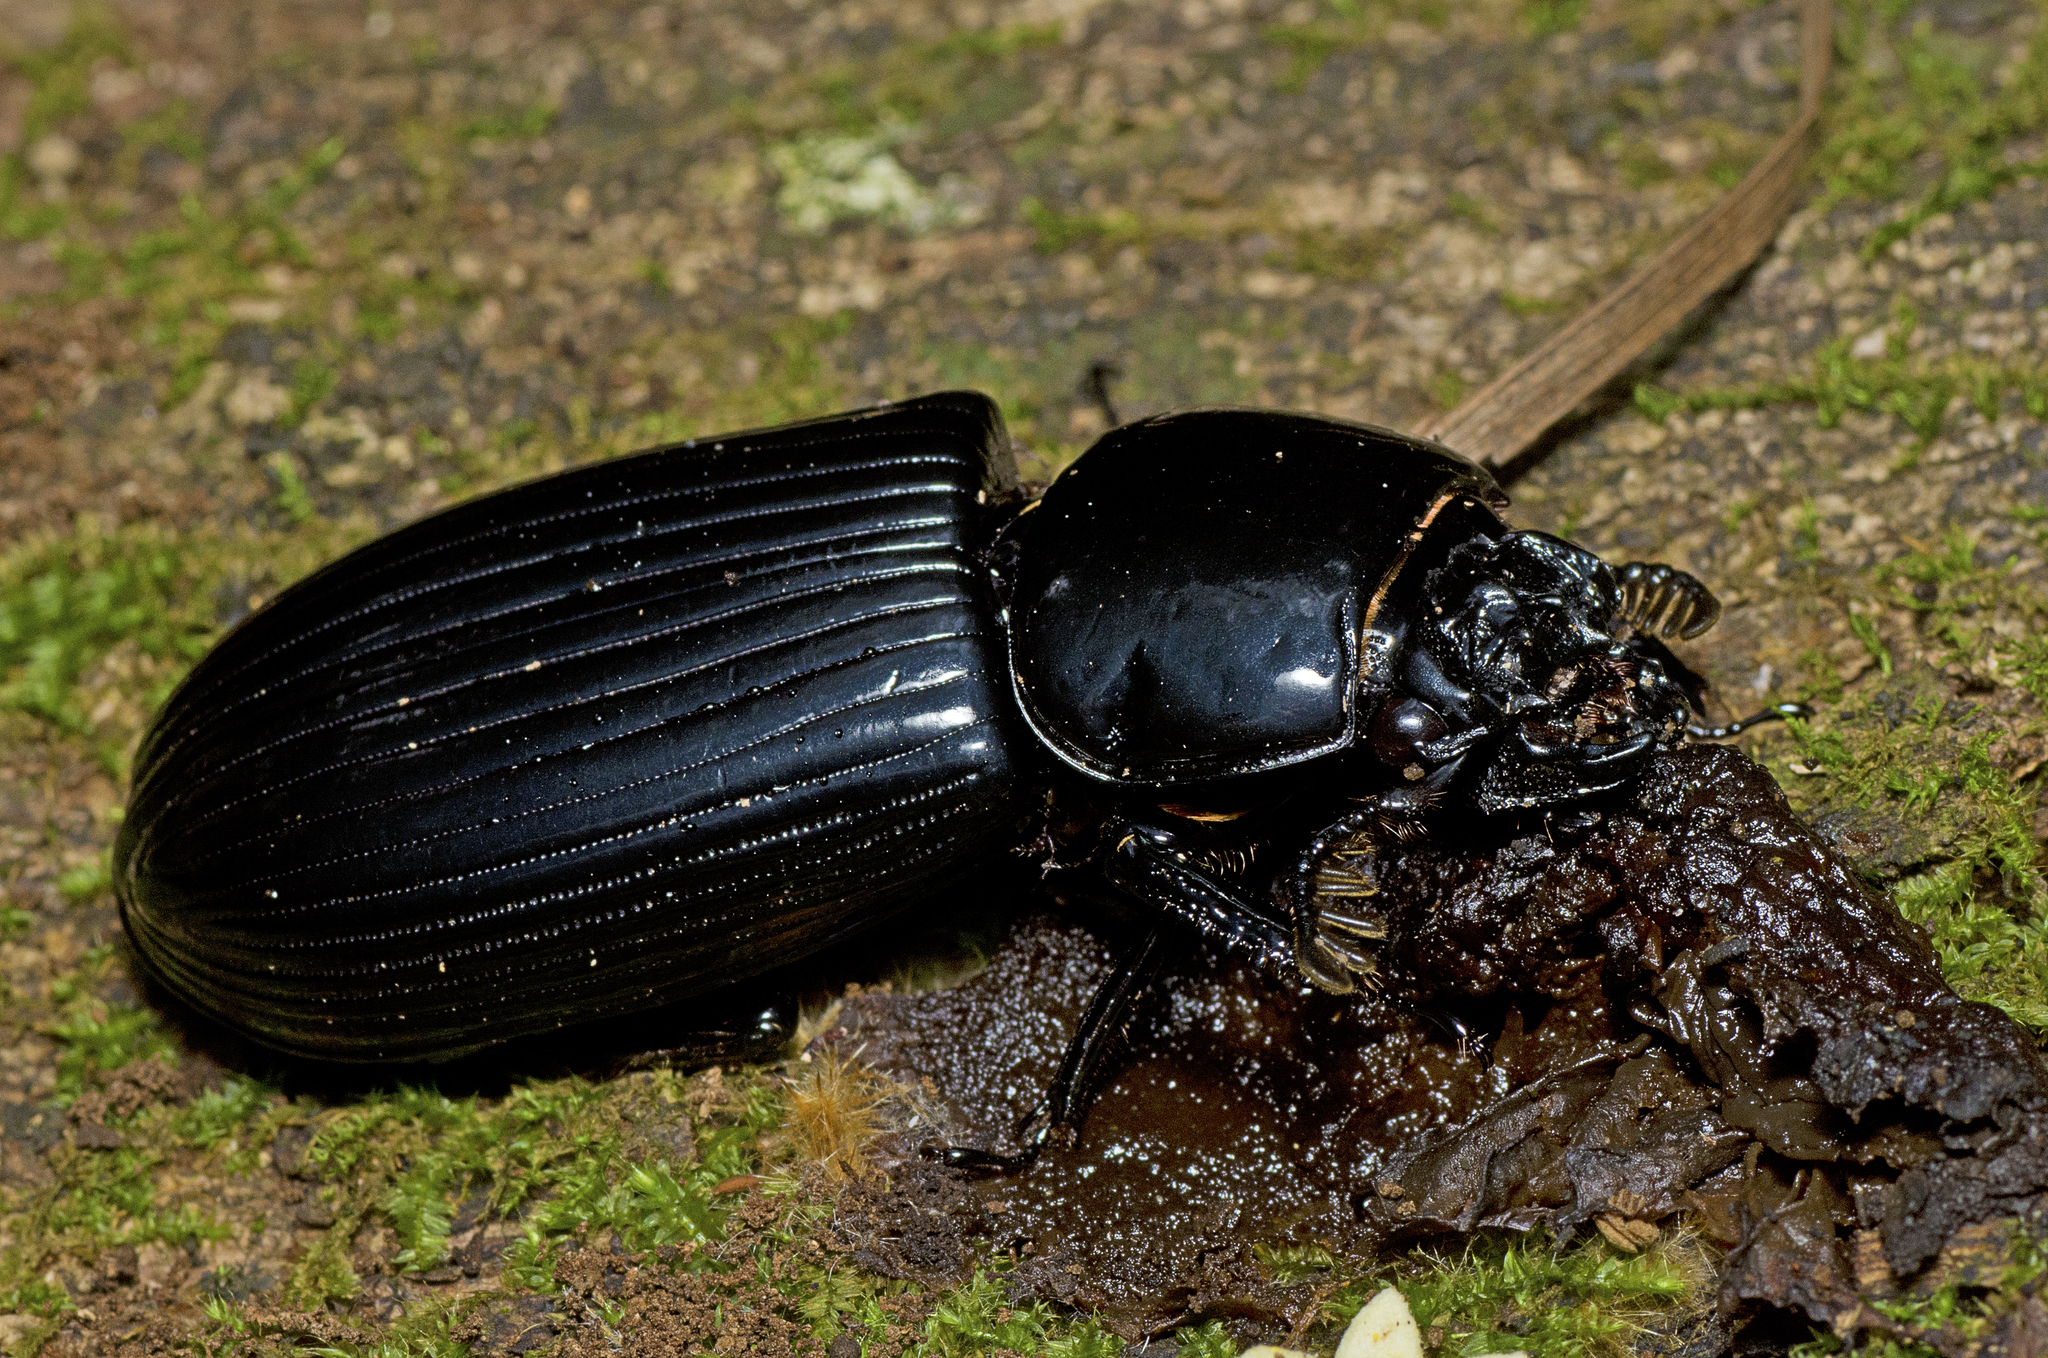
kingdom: Animalia
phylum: Arthropoda
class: Insecta
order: Coleoptera
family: Passalidae
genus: Mastachilus
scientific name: Mastachilus quaestionis
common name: Giant passalid beetle
